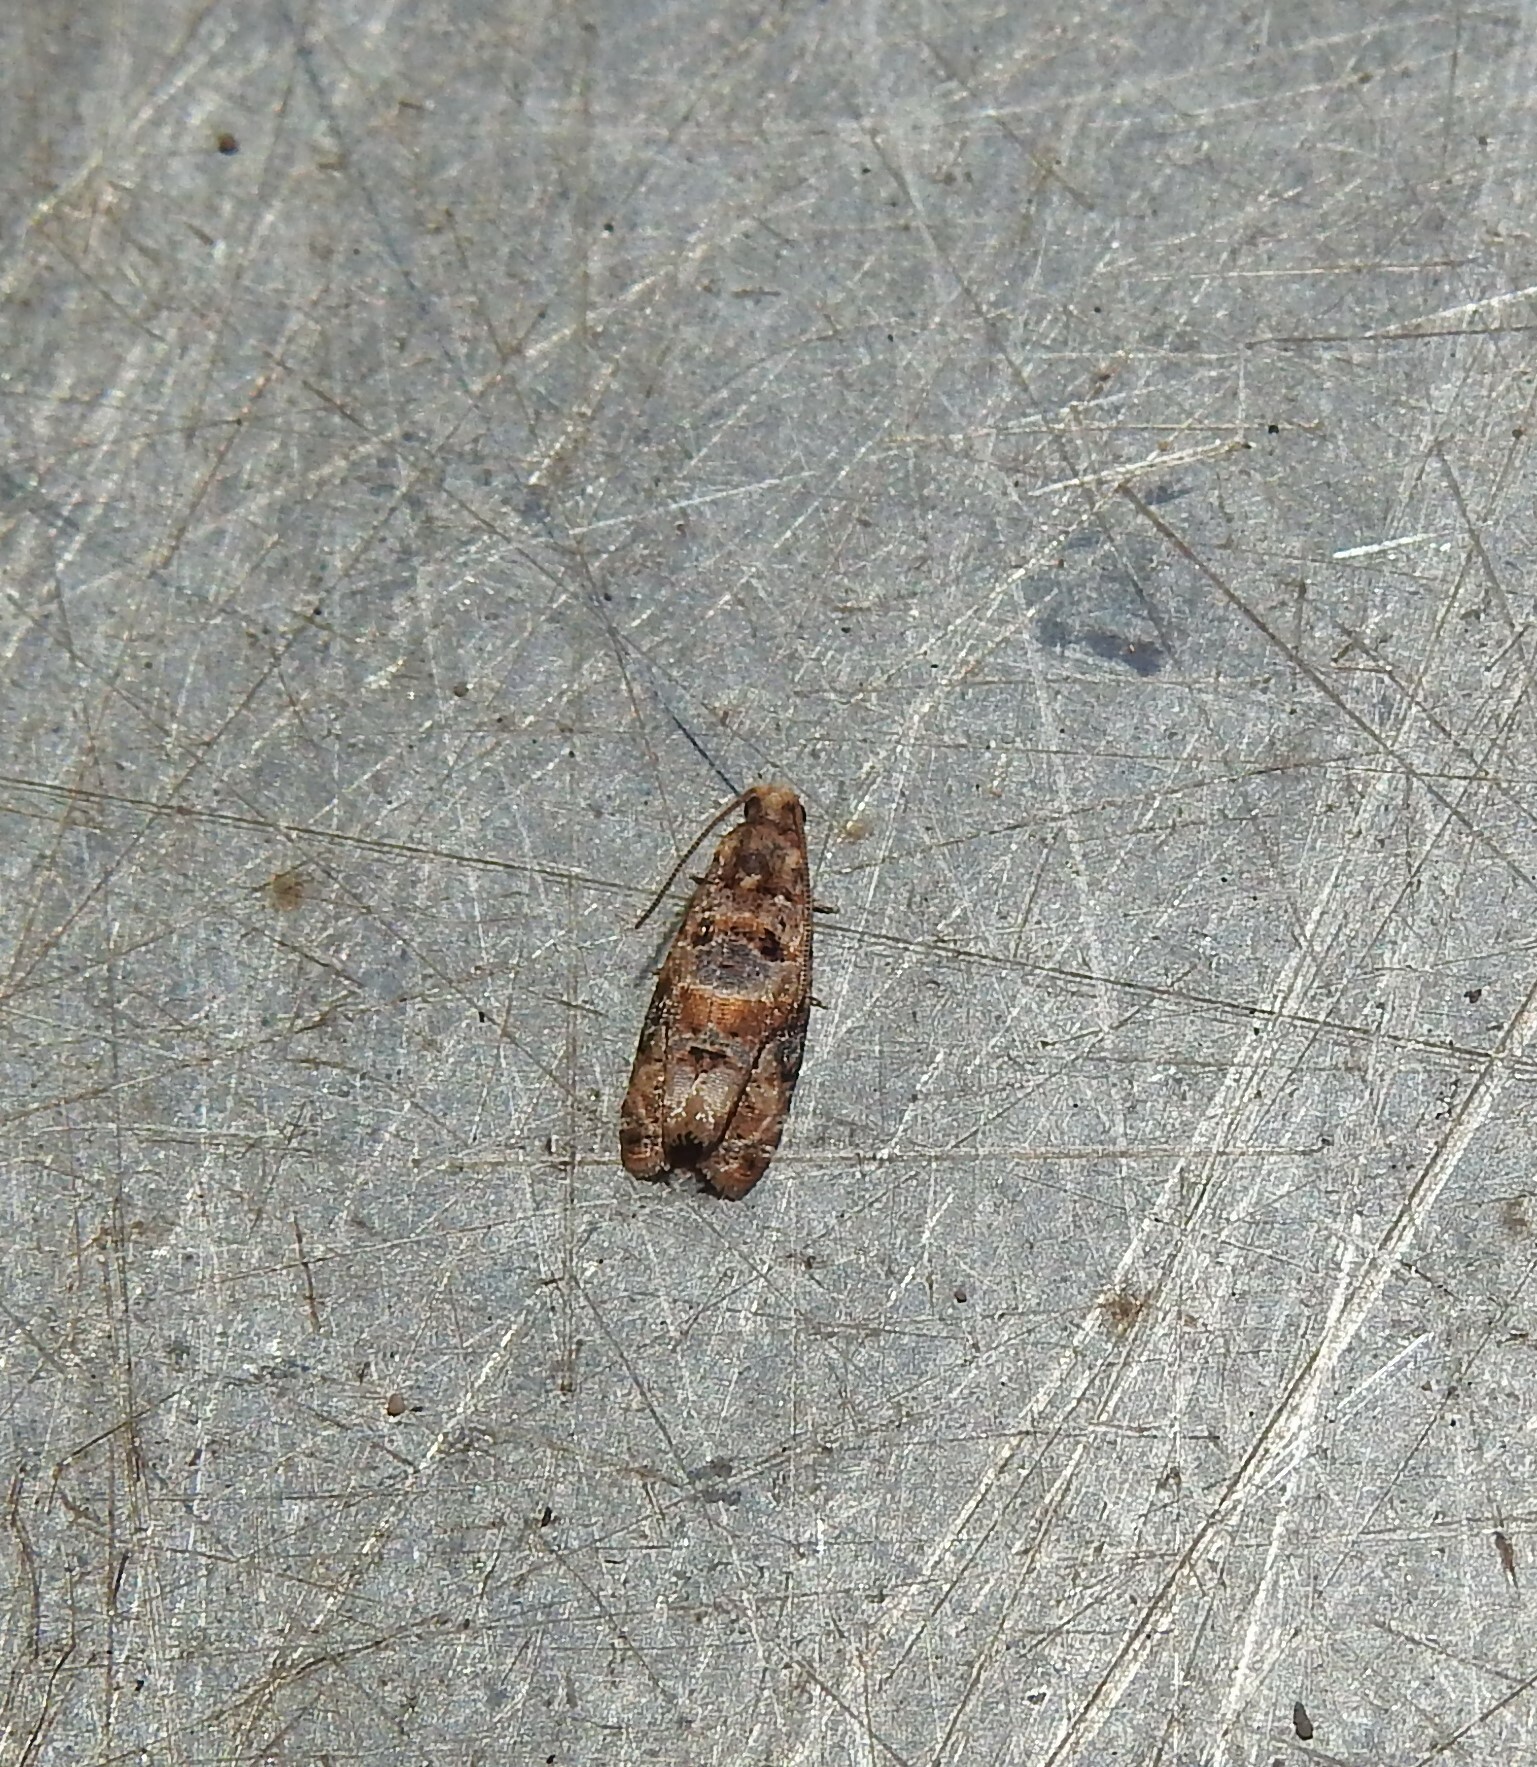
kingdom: Animalia
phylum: Arthropoda
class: Insecta
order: Lepidoptera
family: Tortricidae
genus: Lobesia
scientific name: Lobesia botrana
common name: European vine moth
